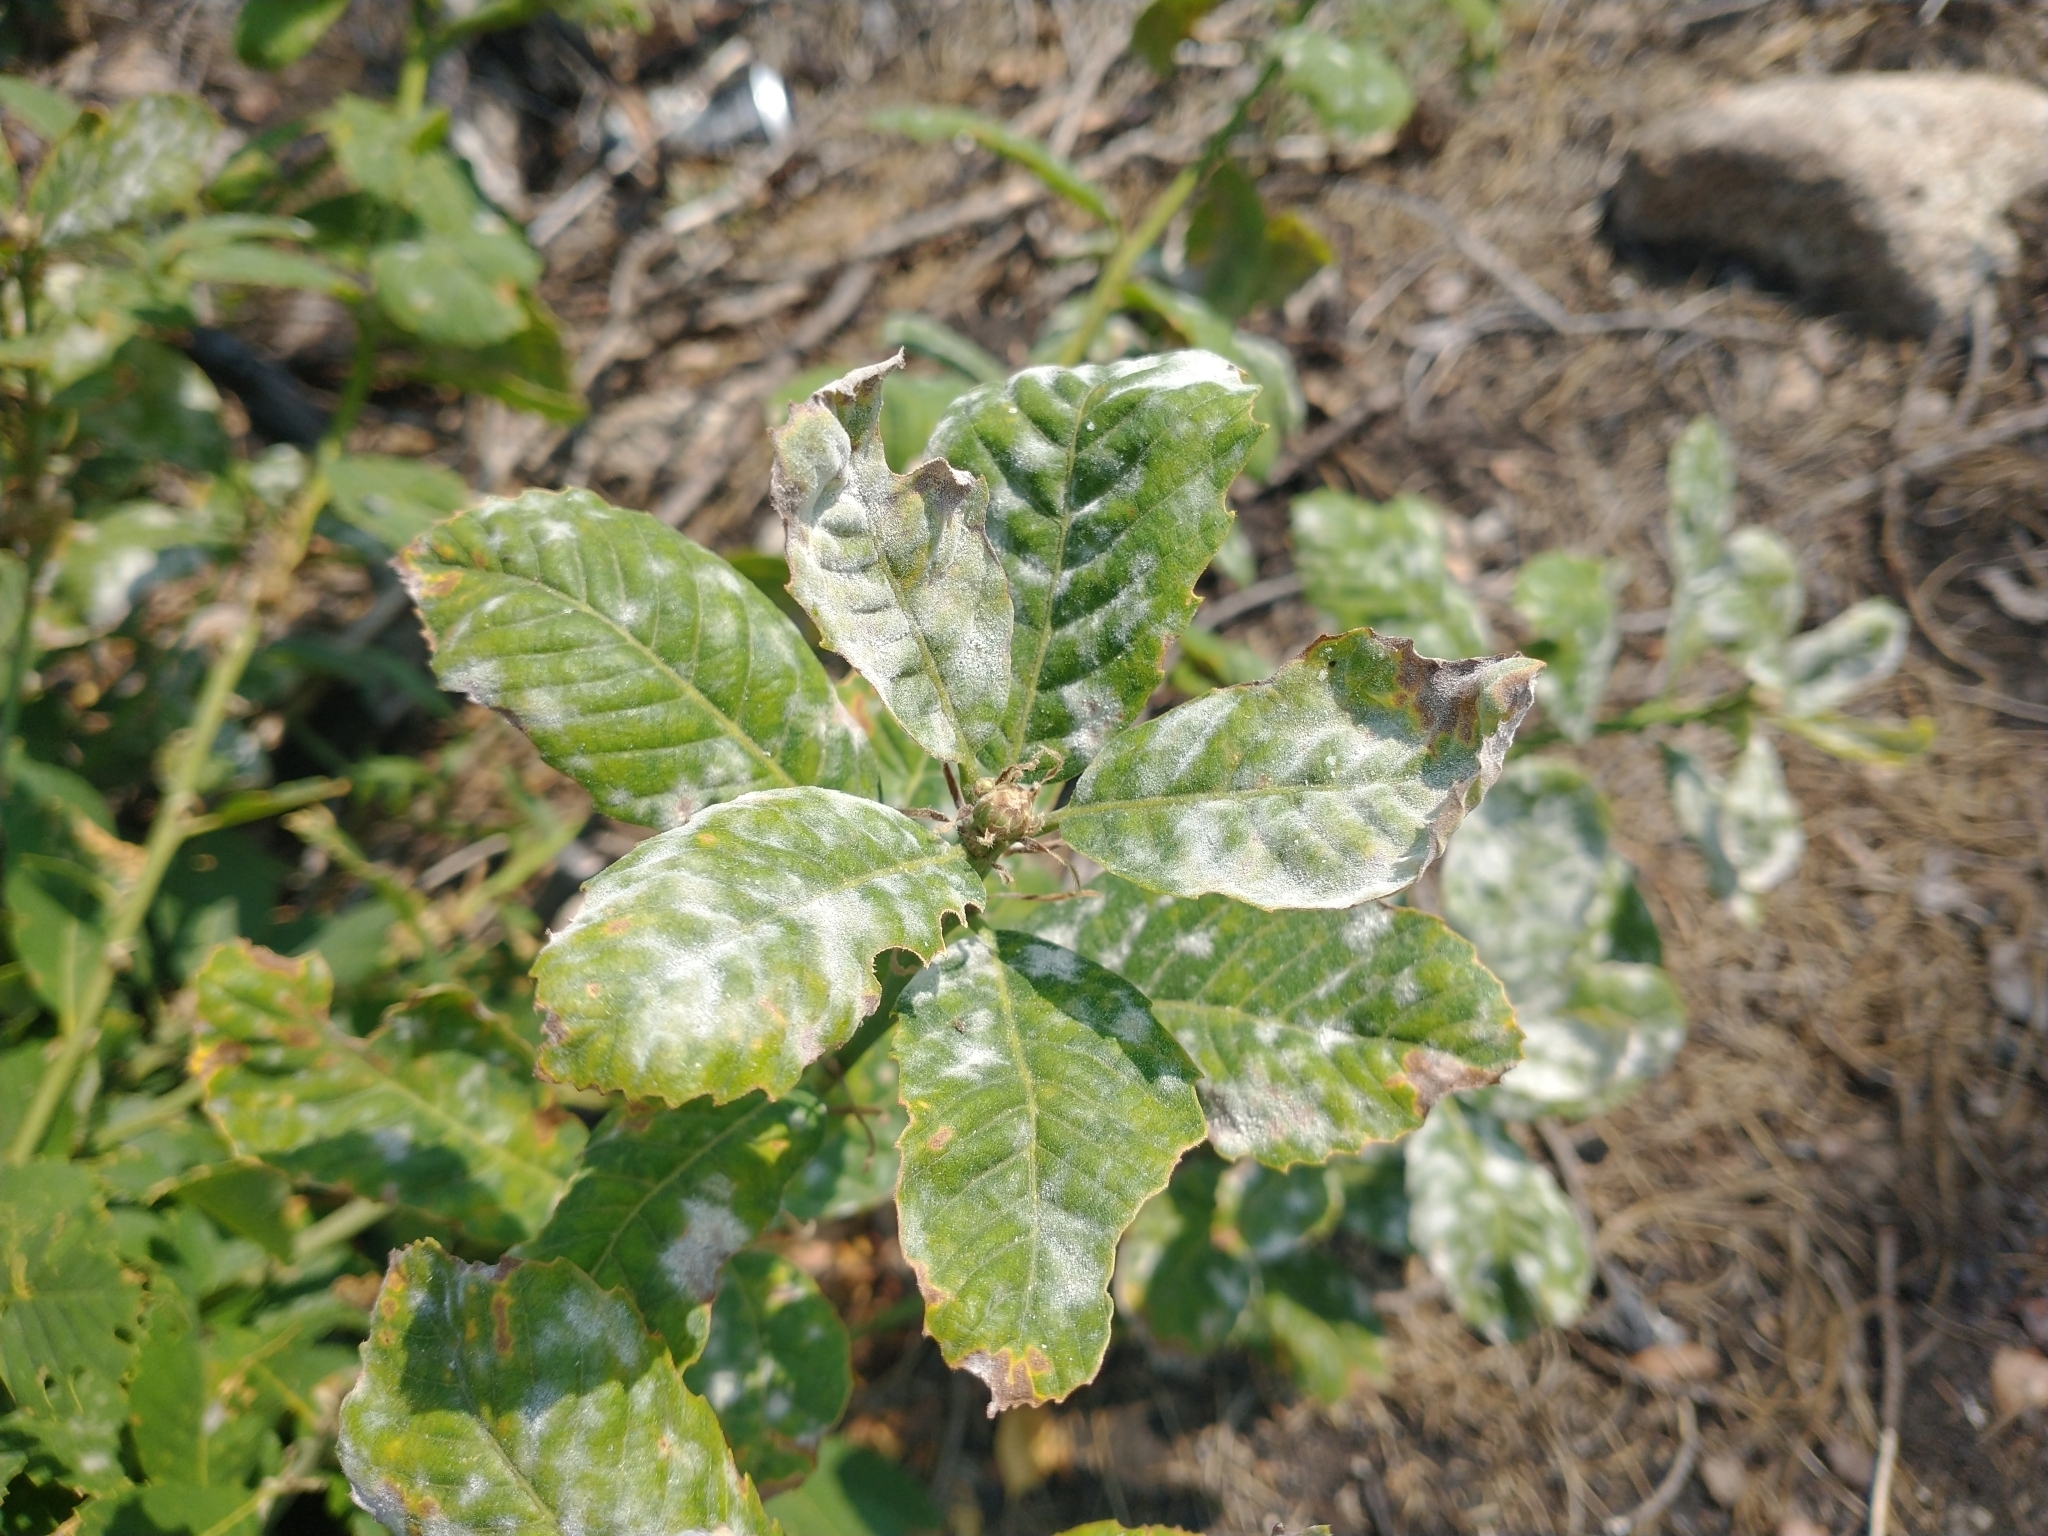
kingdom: Plantae
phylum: Tracheophyta
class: Magnoliopsida
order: Fagales
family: Fagaceae
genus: Quercus
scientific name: Quercus sadleriana
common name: Deer oak
